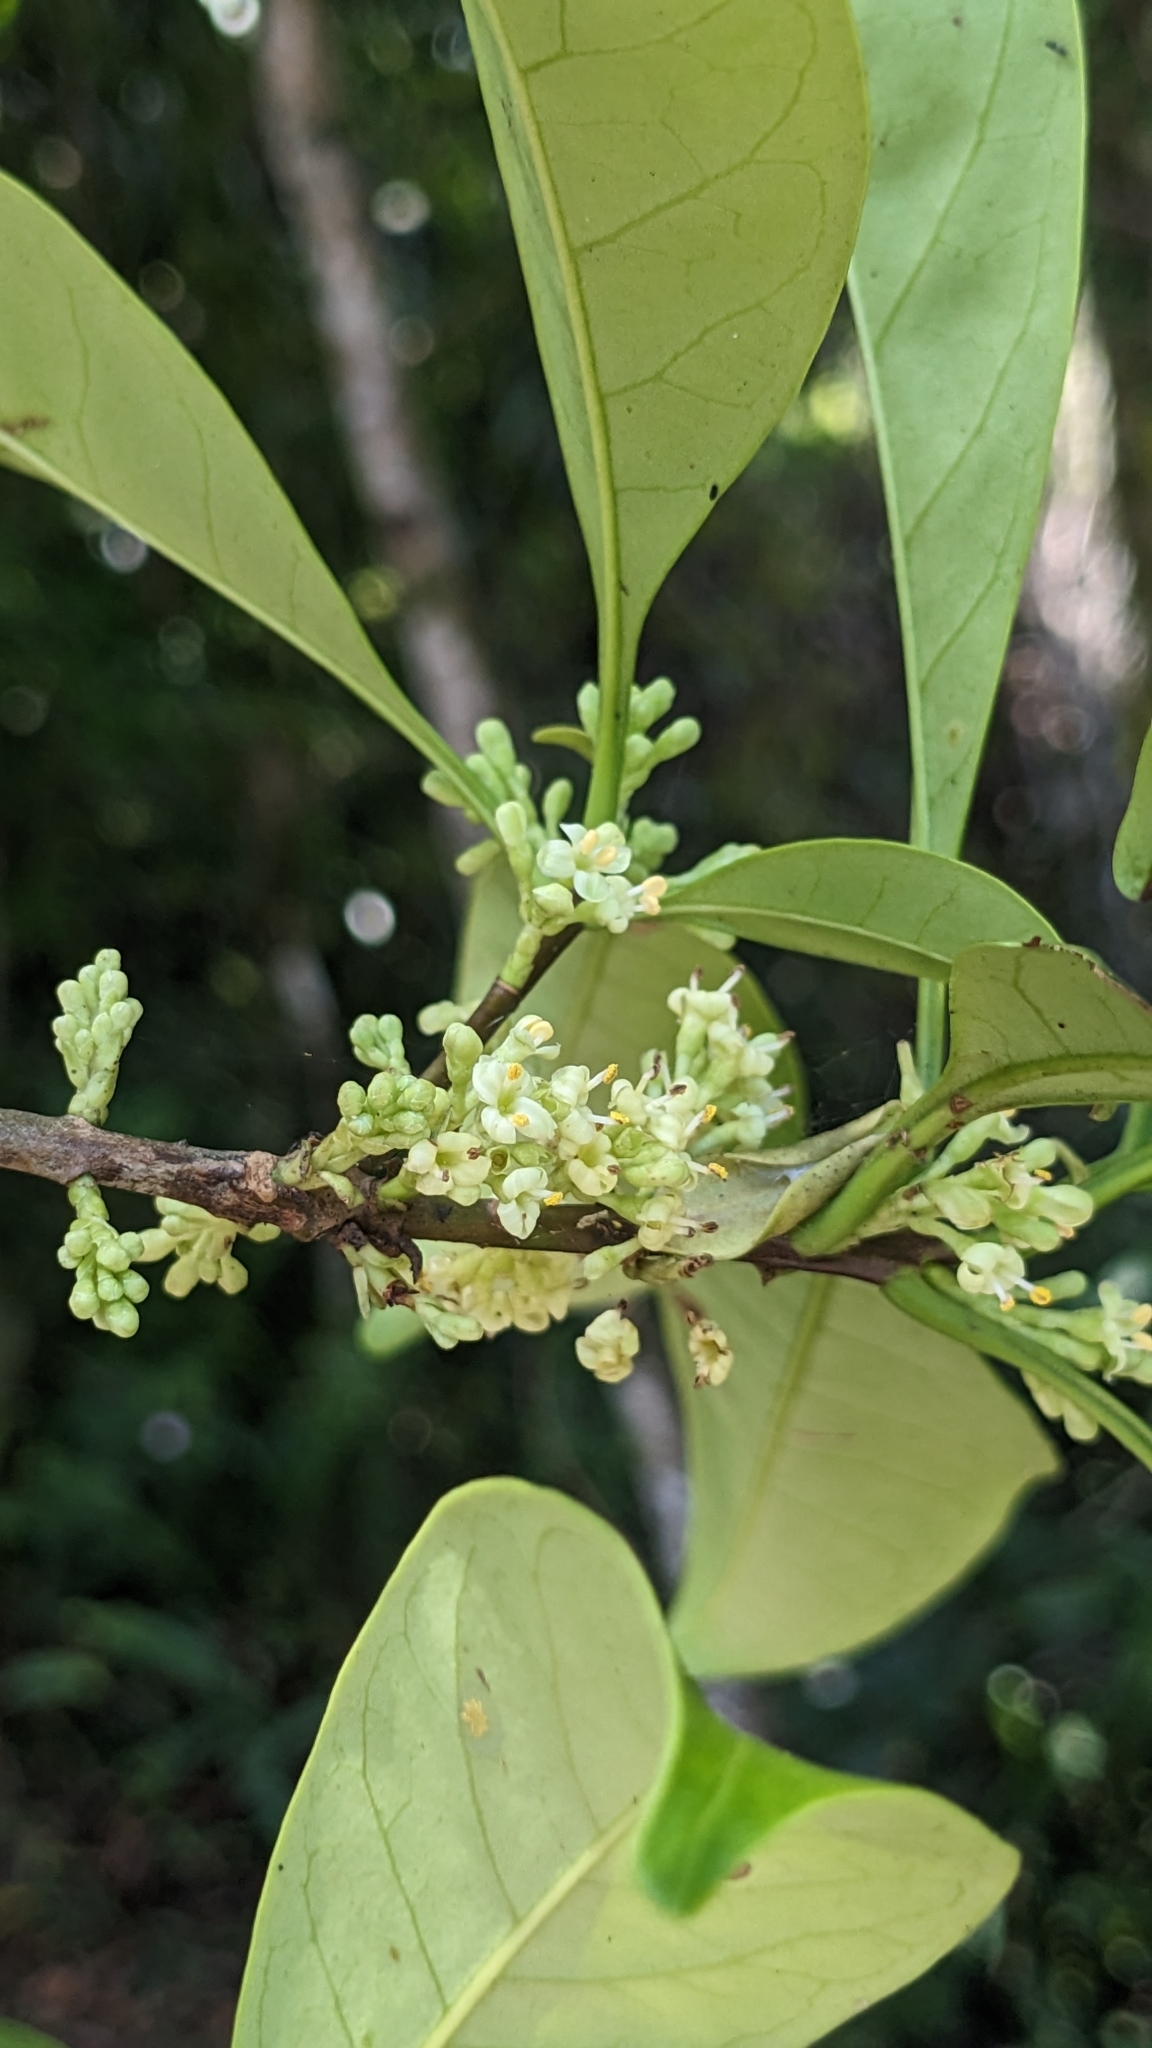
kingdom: Plantae
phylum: Tracheophyta
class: Magnoliopsida
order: Lamiales
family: Oleaceae
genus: Chengiodendron
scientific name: Chengiodendron matsumuranum
